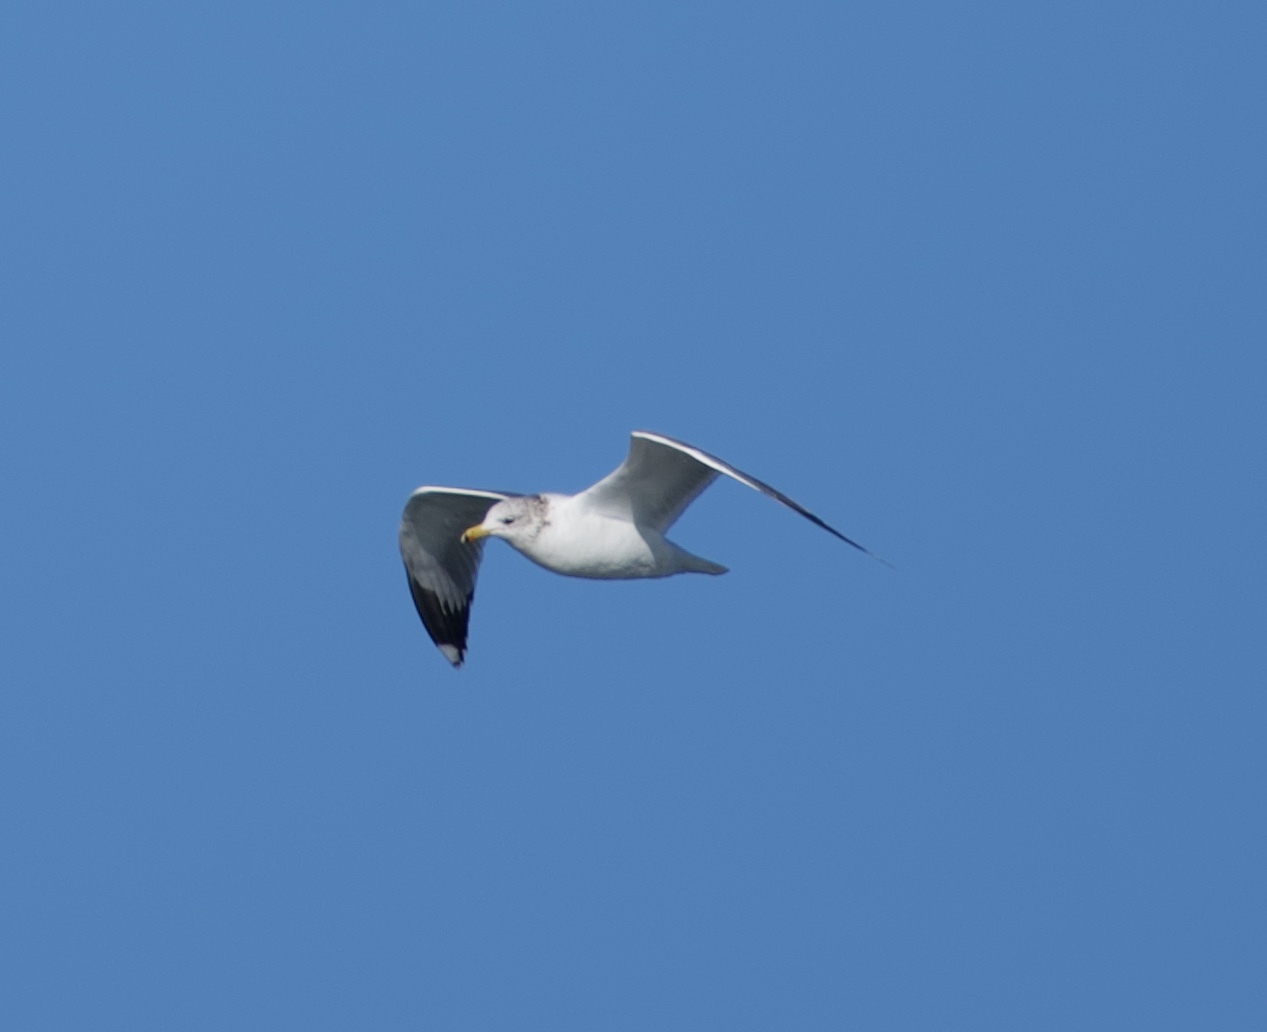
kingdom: Animalia
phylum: Chordata
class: Aves
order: Charadriiformes
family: Laridae
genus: Larus
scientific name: Larus californicus
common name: California gull
